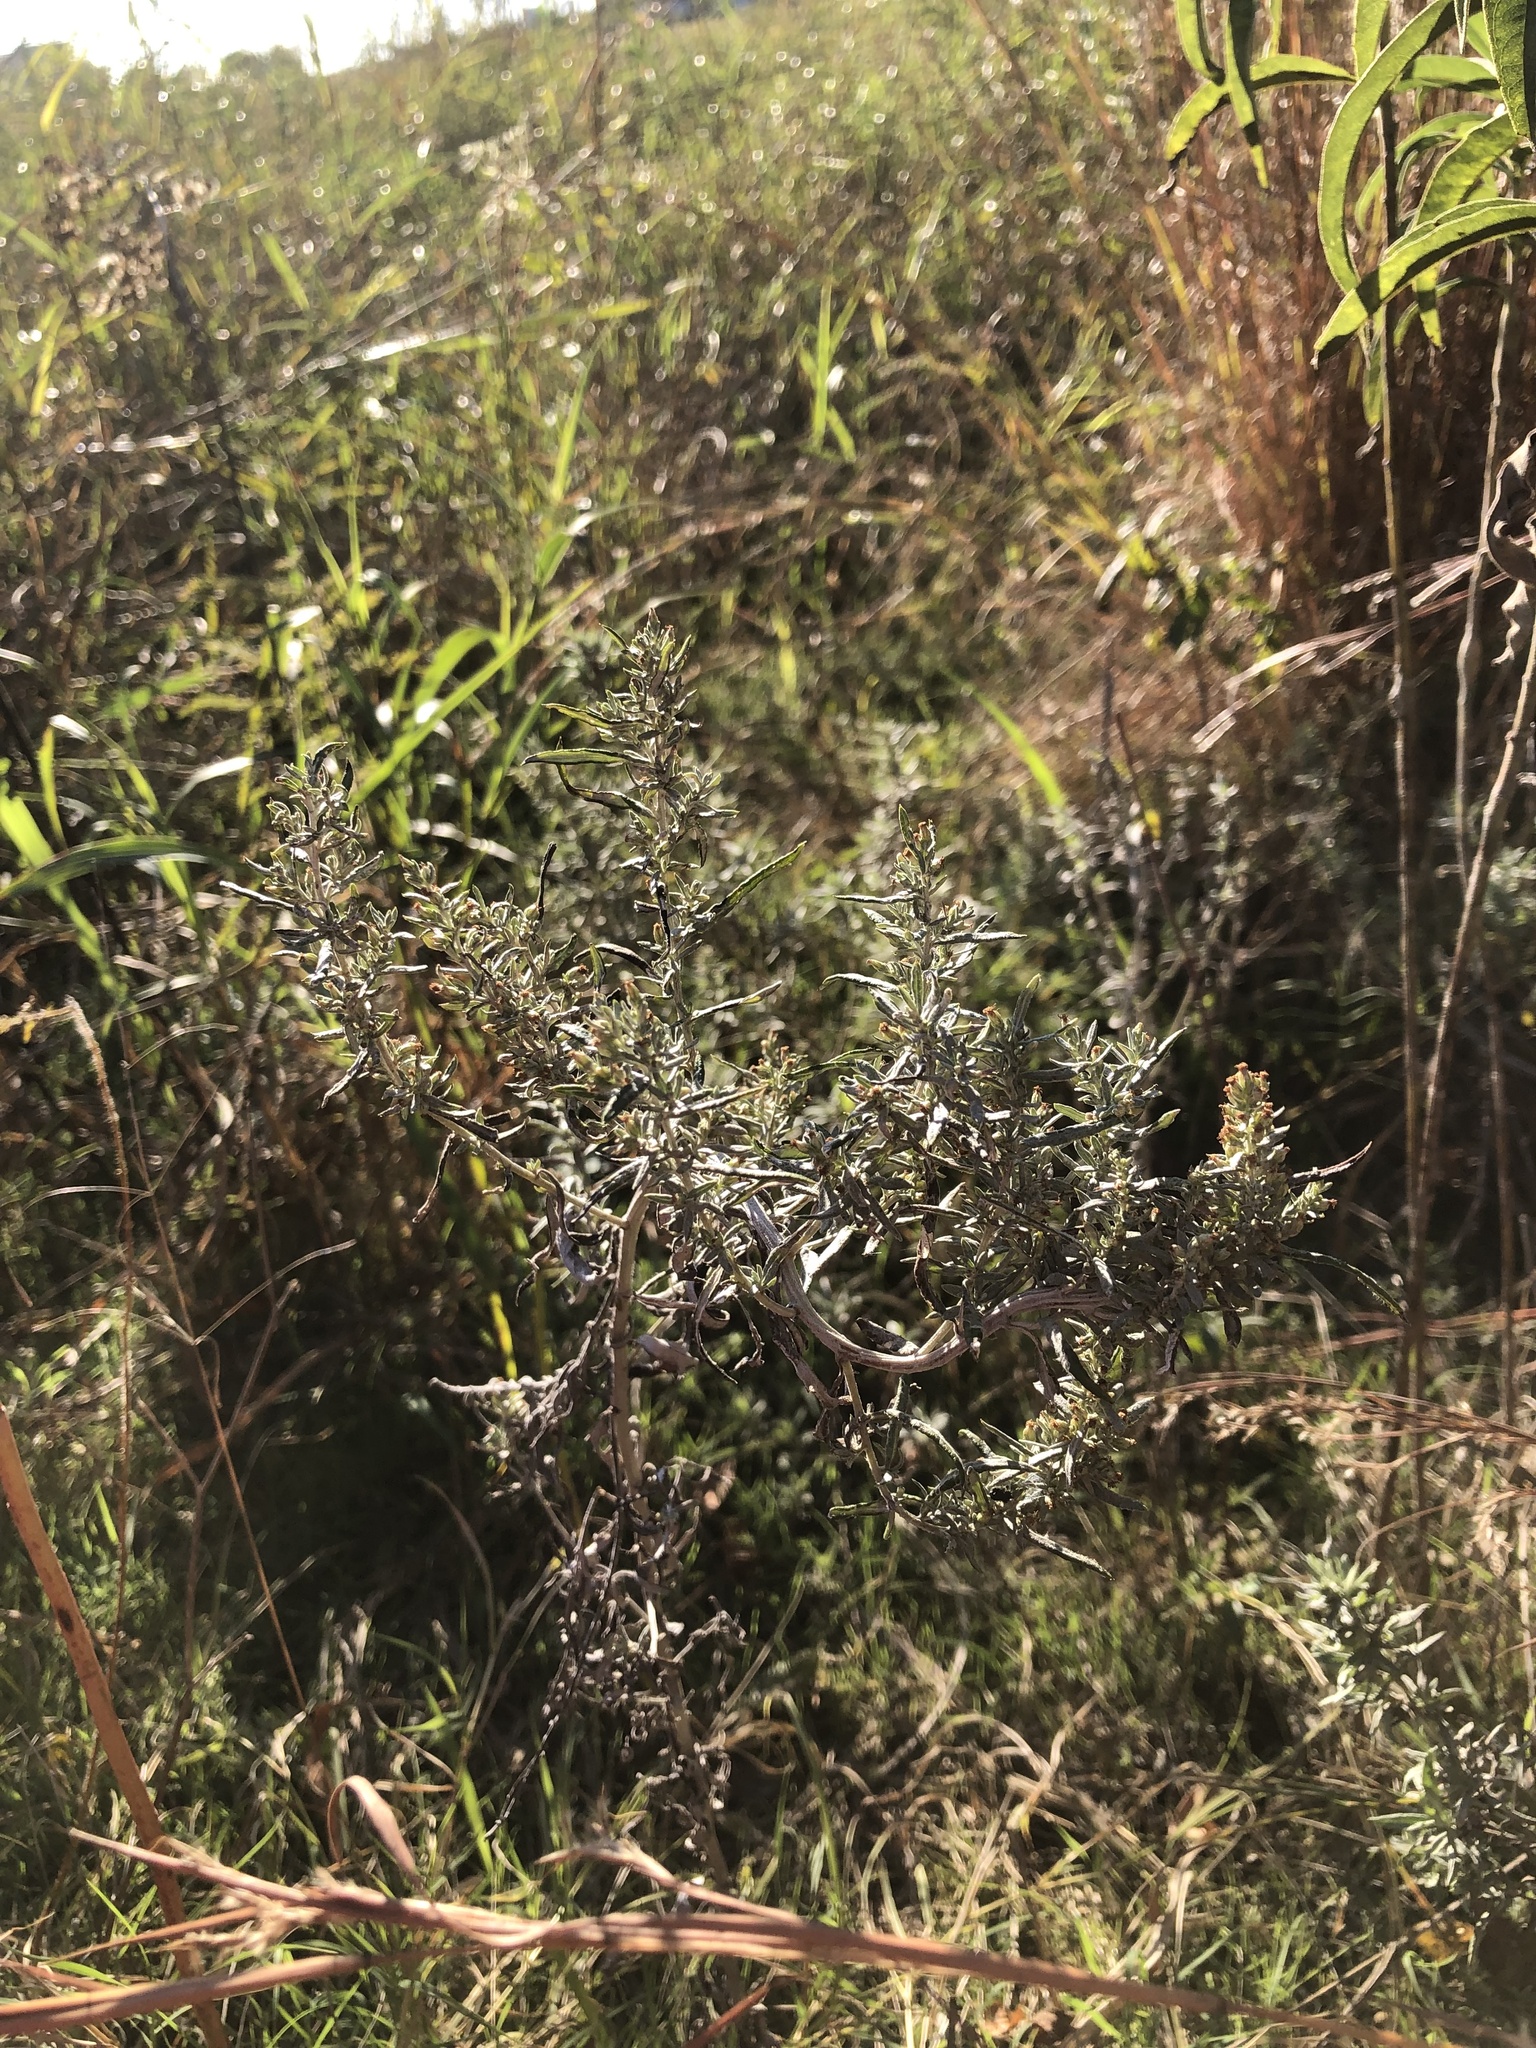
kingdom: Plantae
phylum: Tracheophyta
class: Magnoliopsida
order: Asterales
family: Asteraceae
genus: Artemisia
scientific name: Artemisia ludoviciana
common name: Western mugwort
